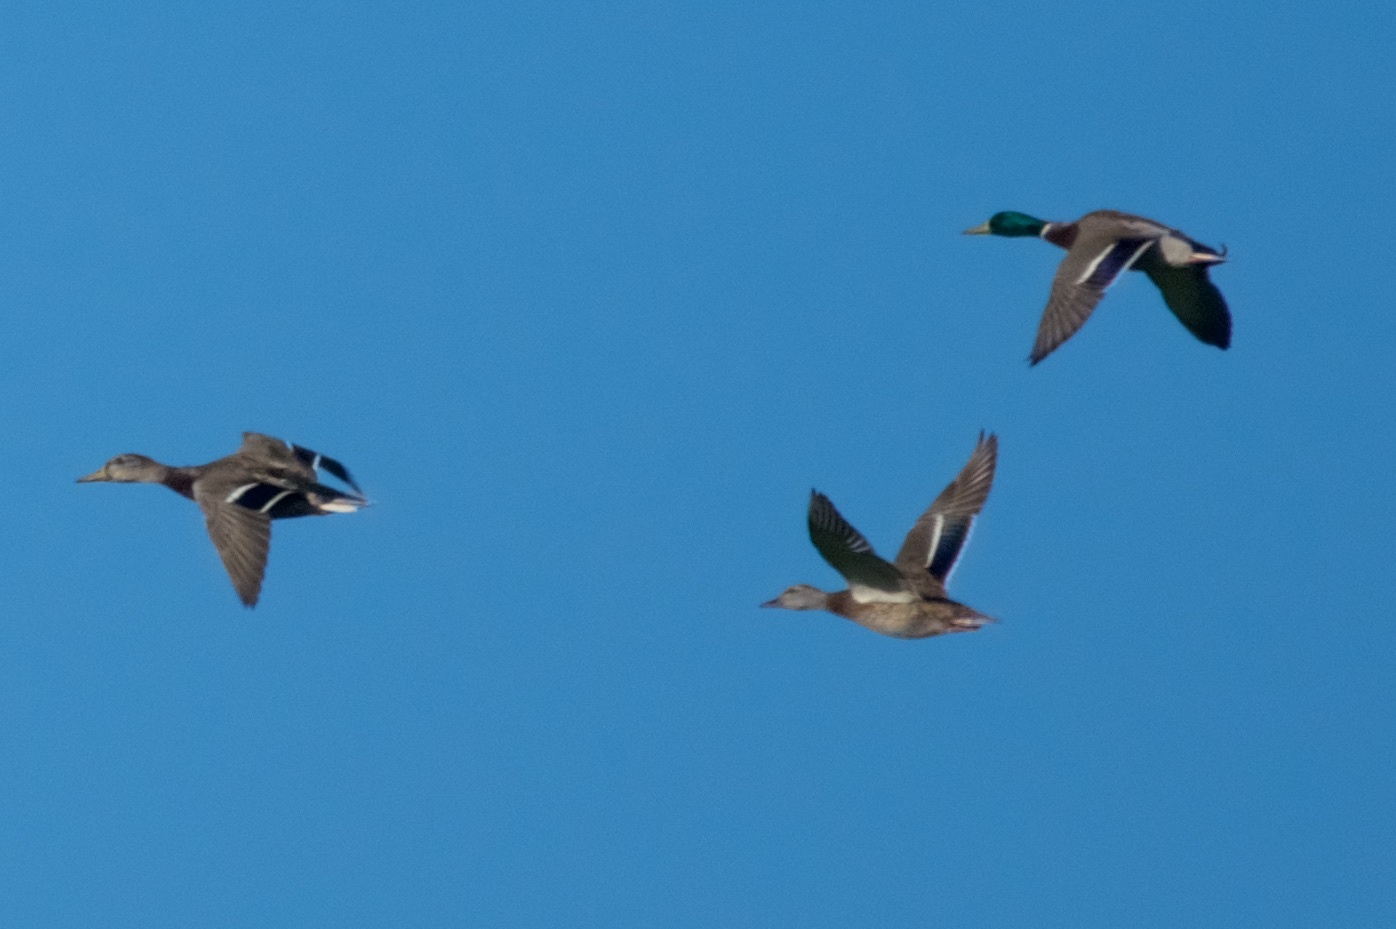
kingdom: Animalia
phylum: Chordata
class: Aves
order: Anseriformes
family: Anatidae
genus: Anas
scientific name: Anas platyrhynchos
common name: Mallard
